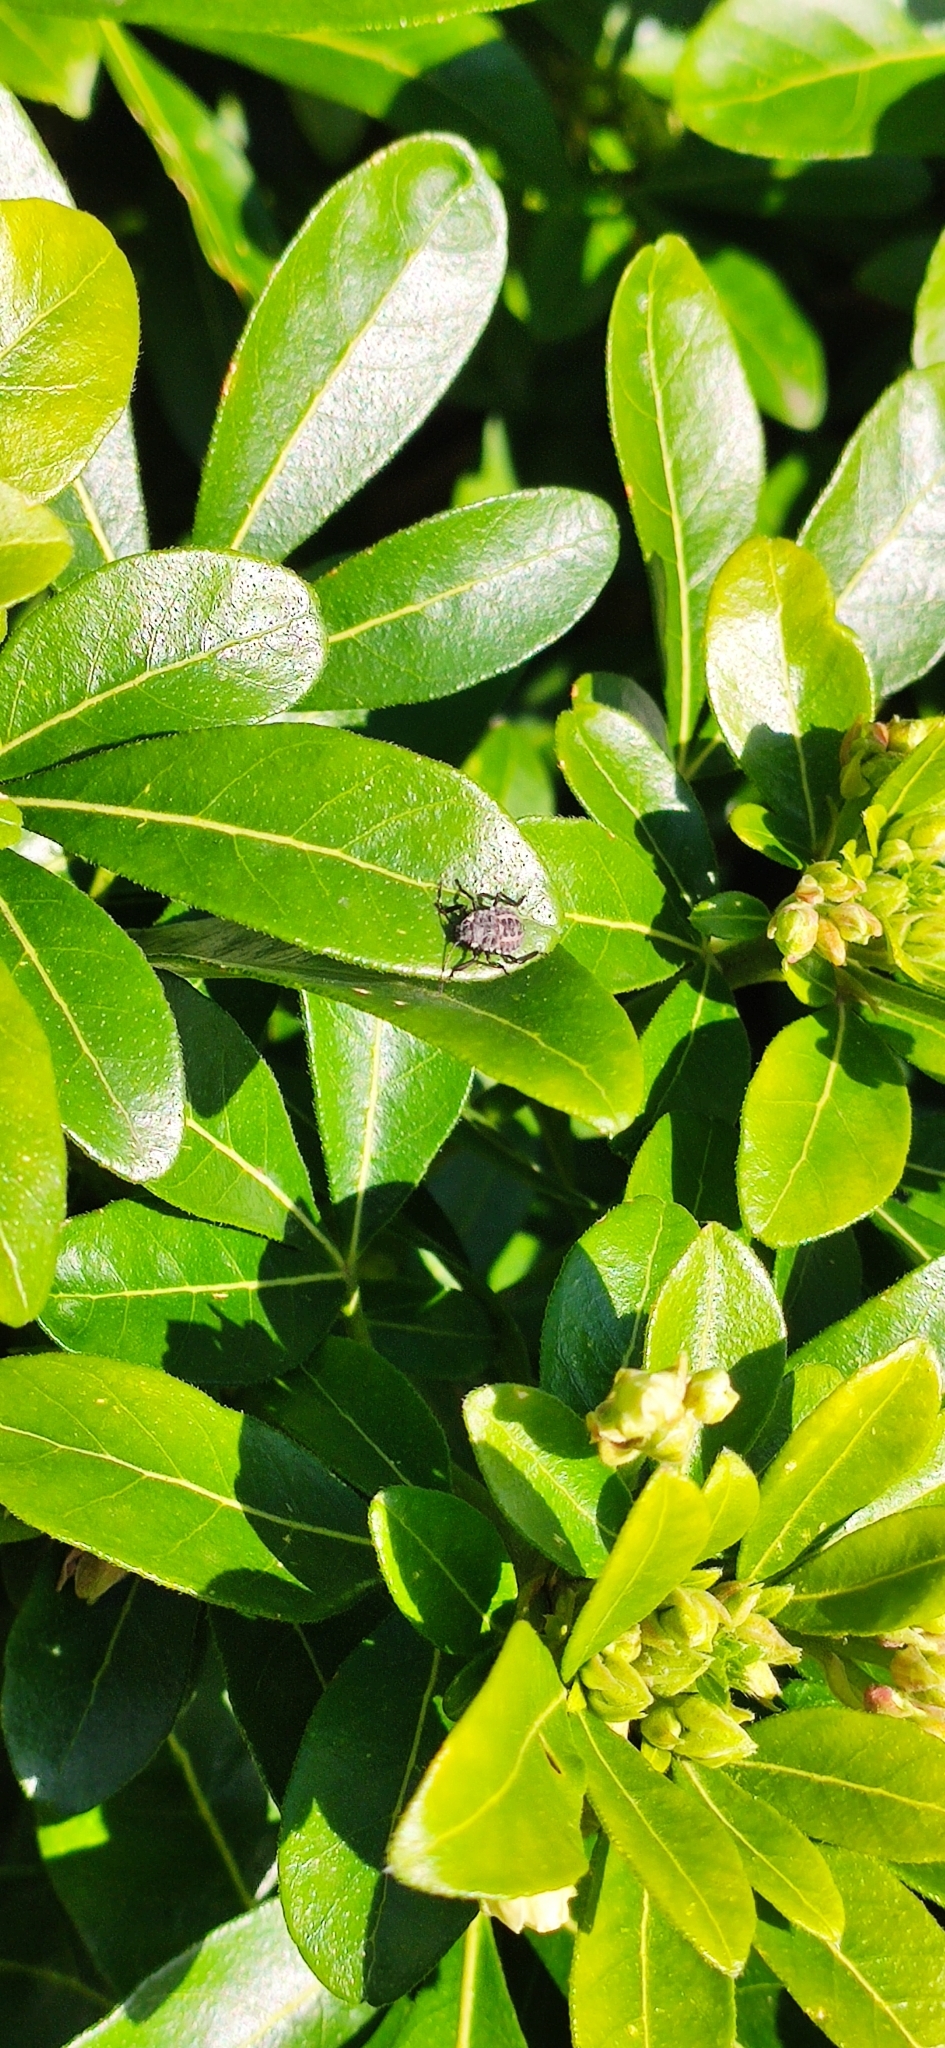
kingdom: Animalia
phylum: Arthropoda
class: Insecta
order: Hemiptera
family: Pentatomidae
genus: Halyomorpha
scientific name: Halyomorpha halys
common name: Brown marmorated stink bug
